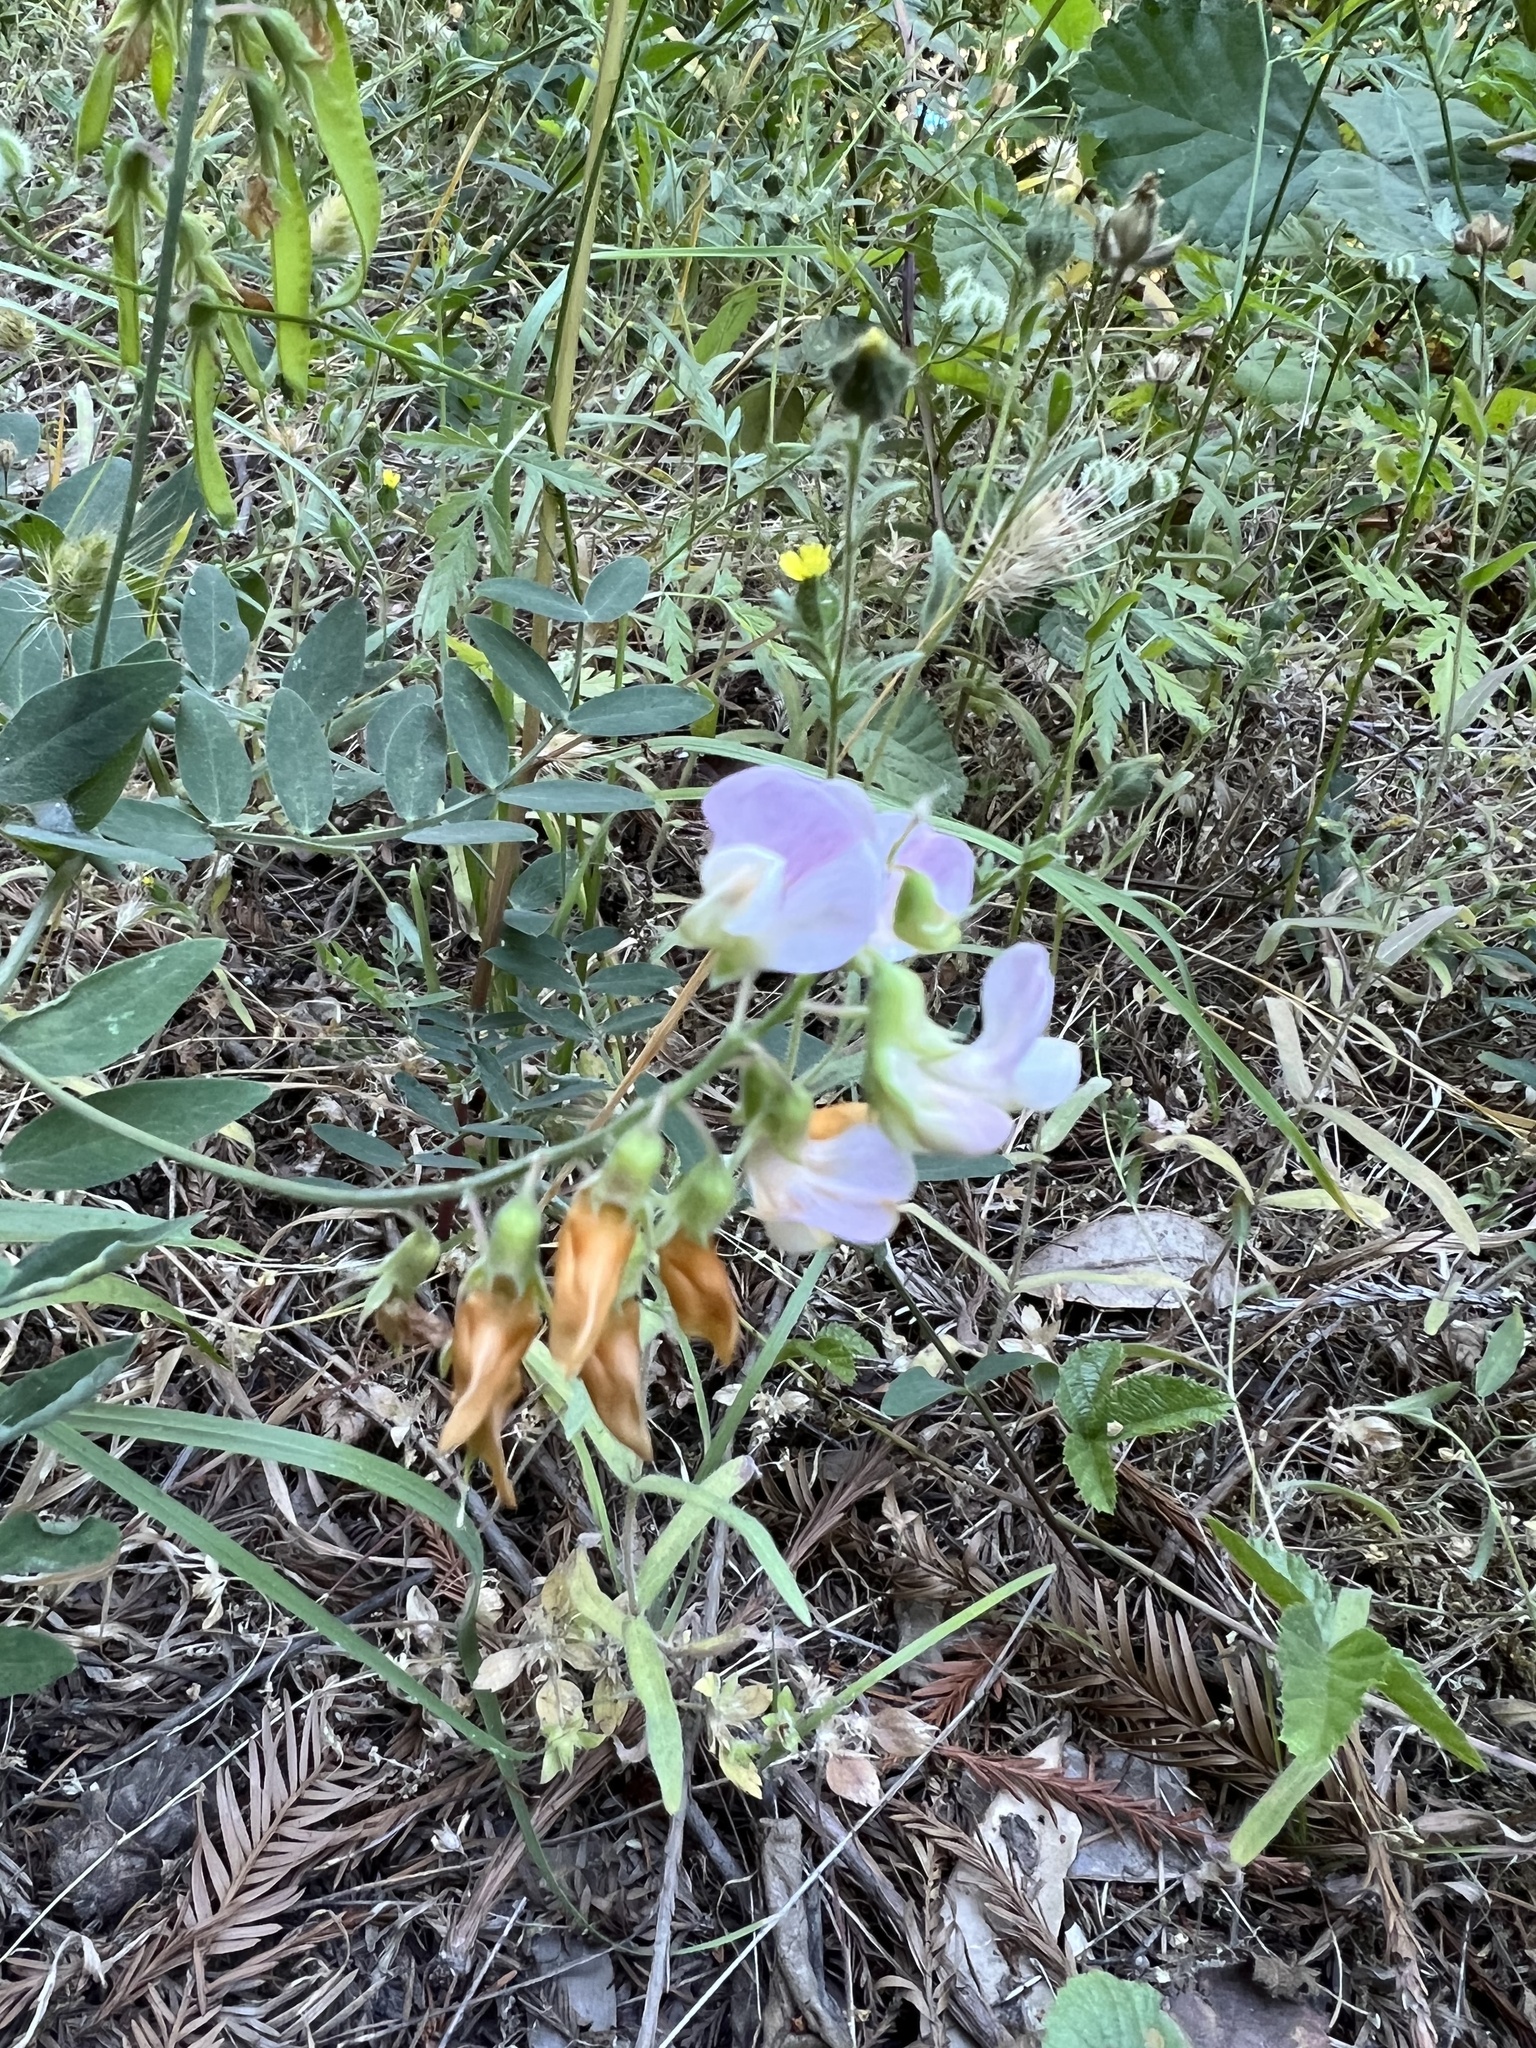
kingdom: Plantae
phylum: Tracheophyta
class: Magnoliopsida
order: Fabales
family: Fabaceae
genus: Lathyrus
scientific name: Lathyrus vestitus
